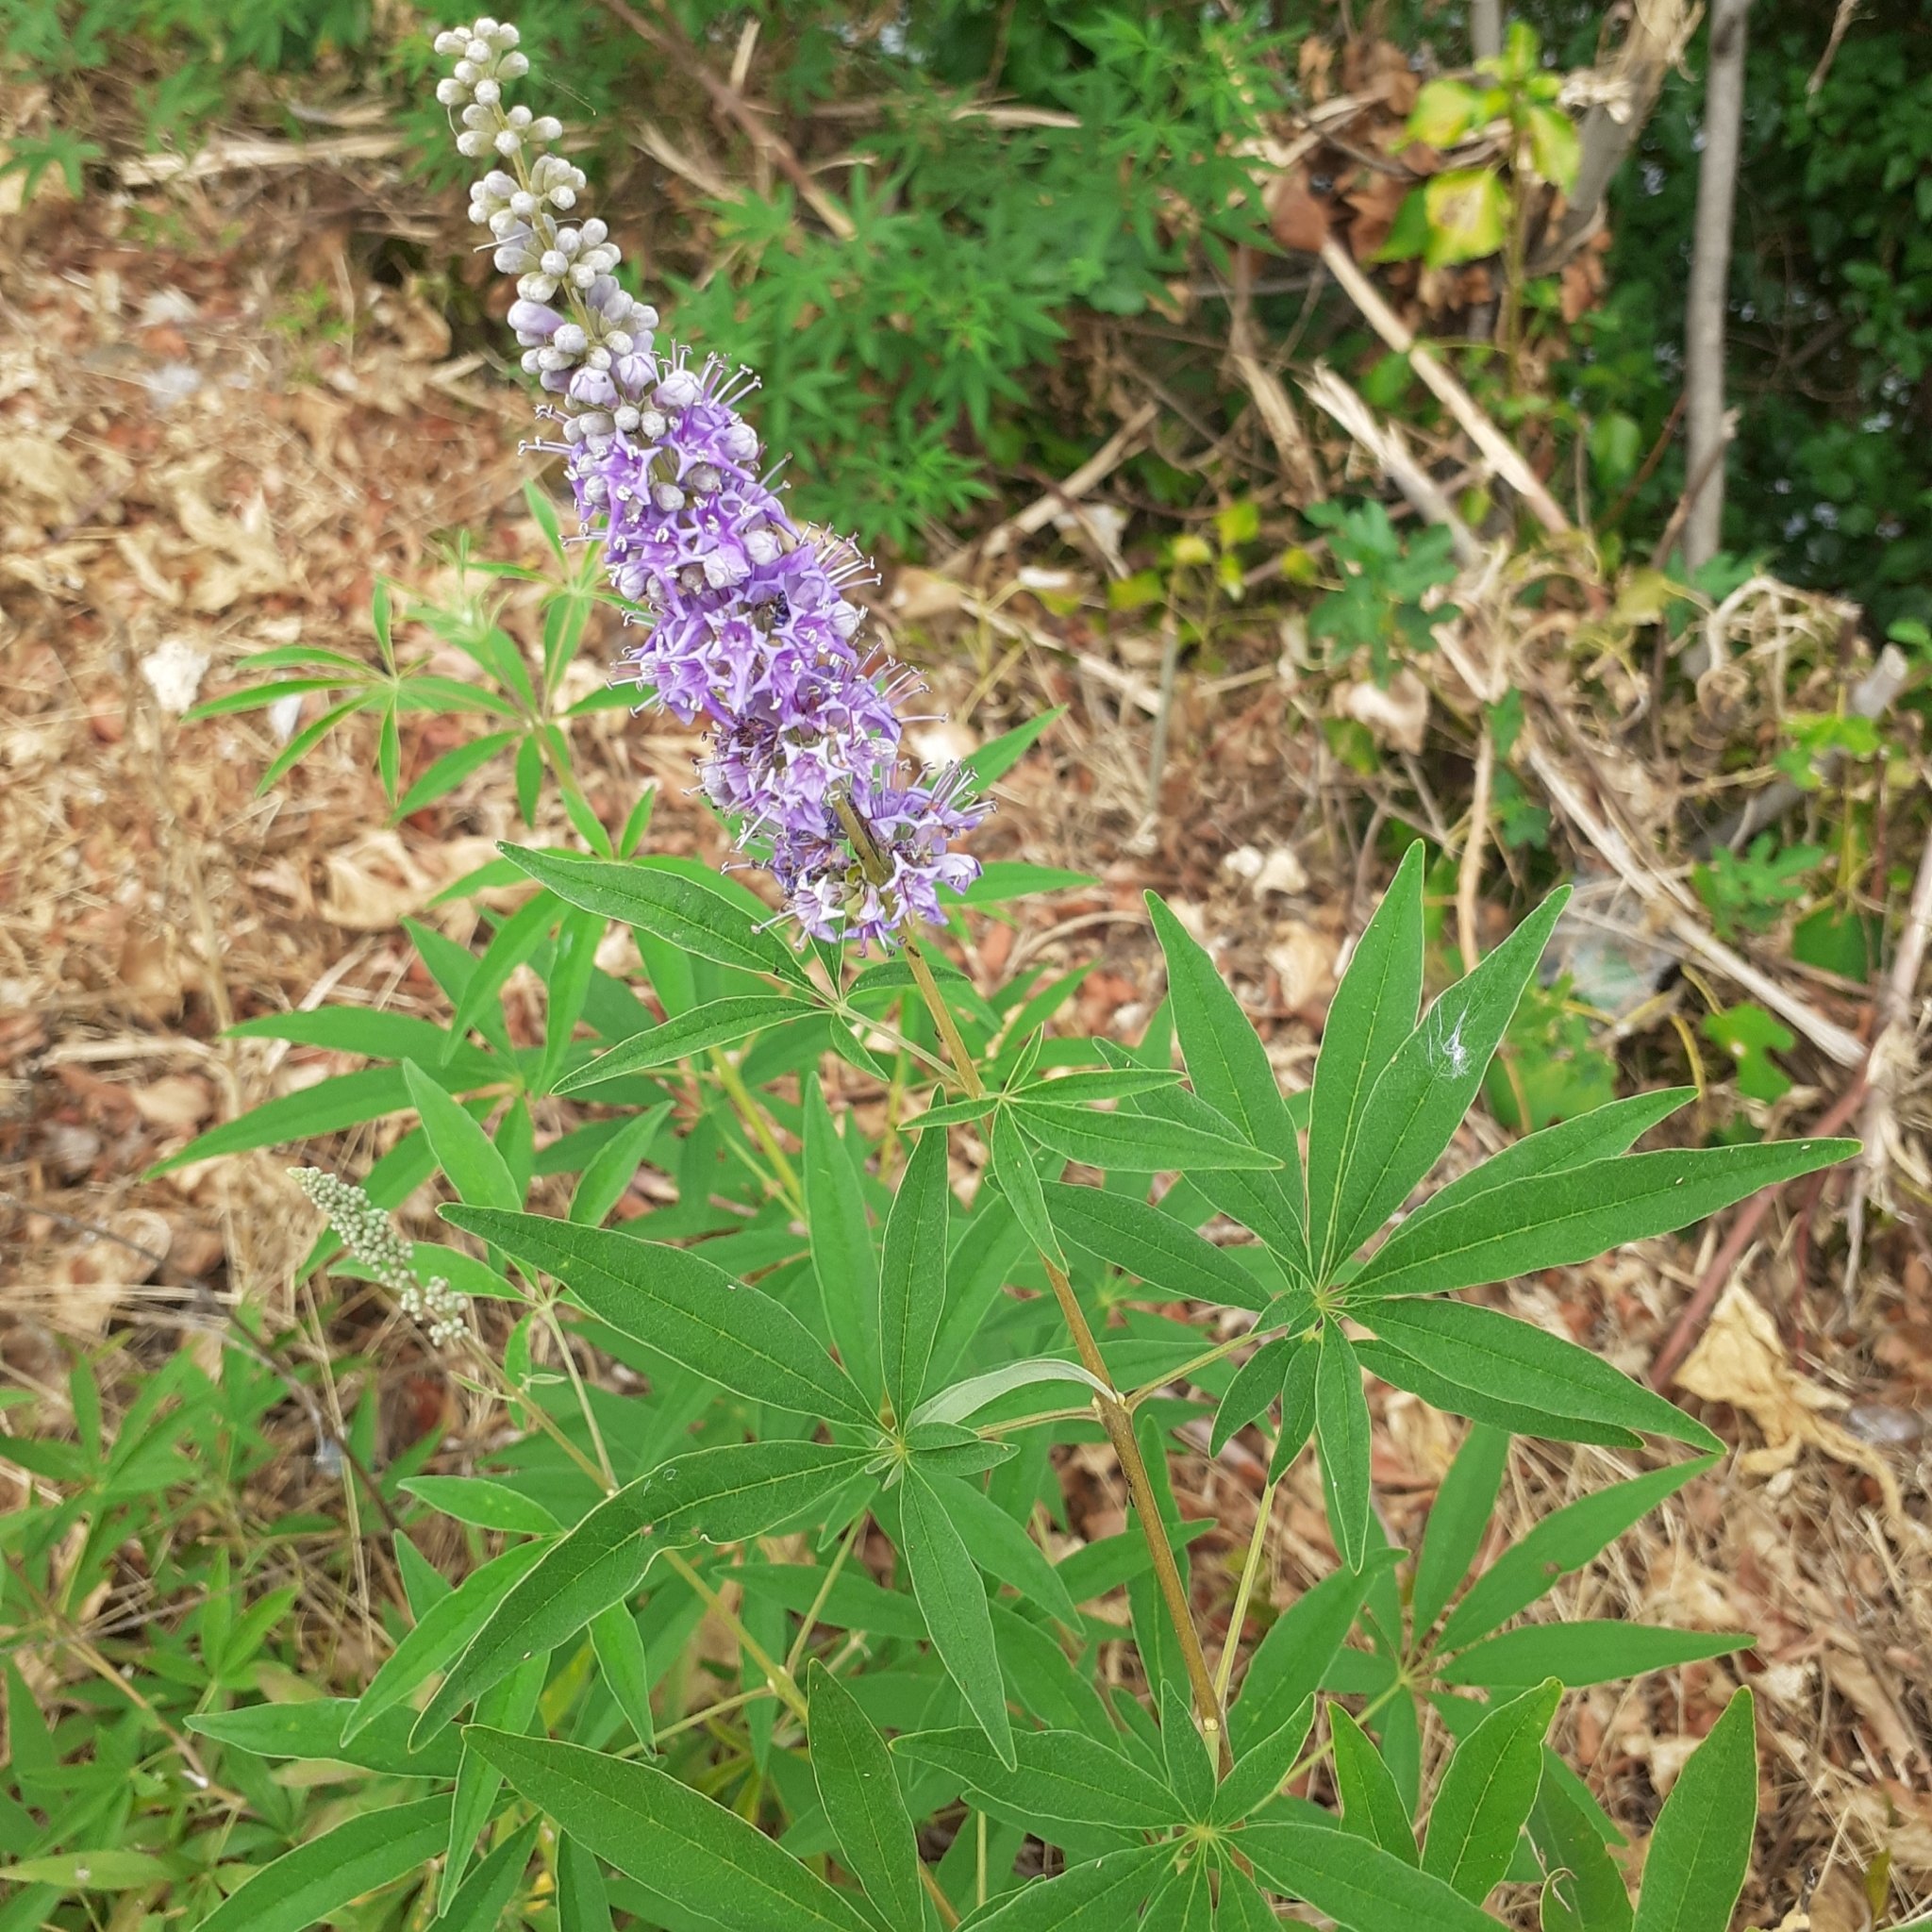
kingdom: Plantae
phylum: Tracheophyta
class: Magnoliopsida
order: Lamiales
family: Lamiaceae
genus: Vitex
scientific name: Vitex agnus-castus
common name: Chasteberry
